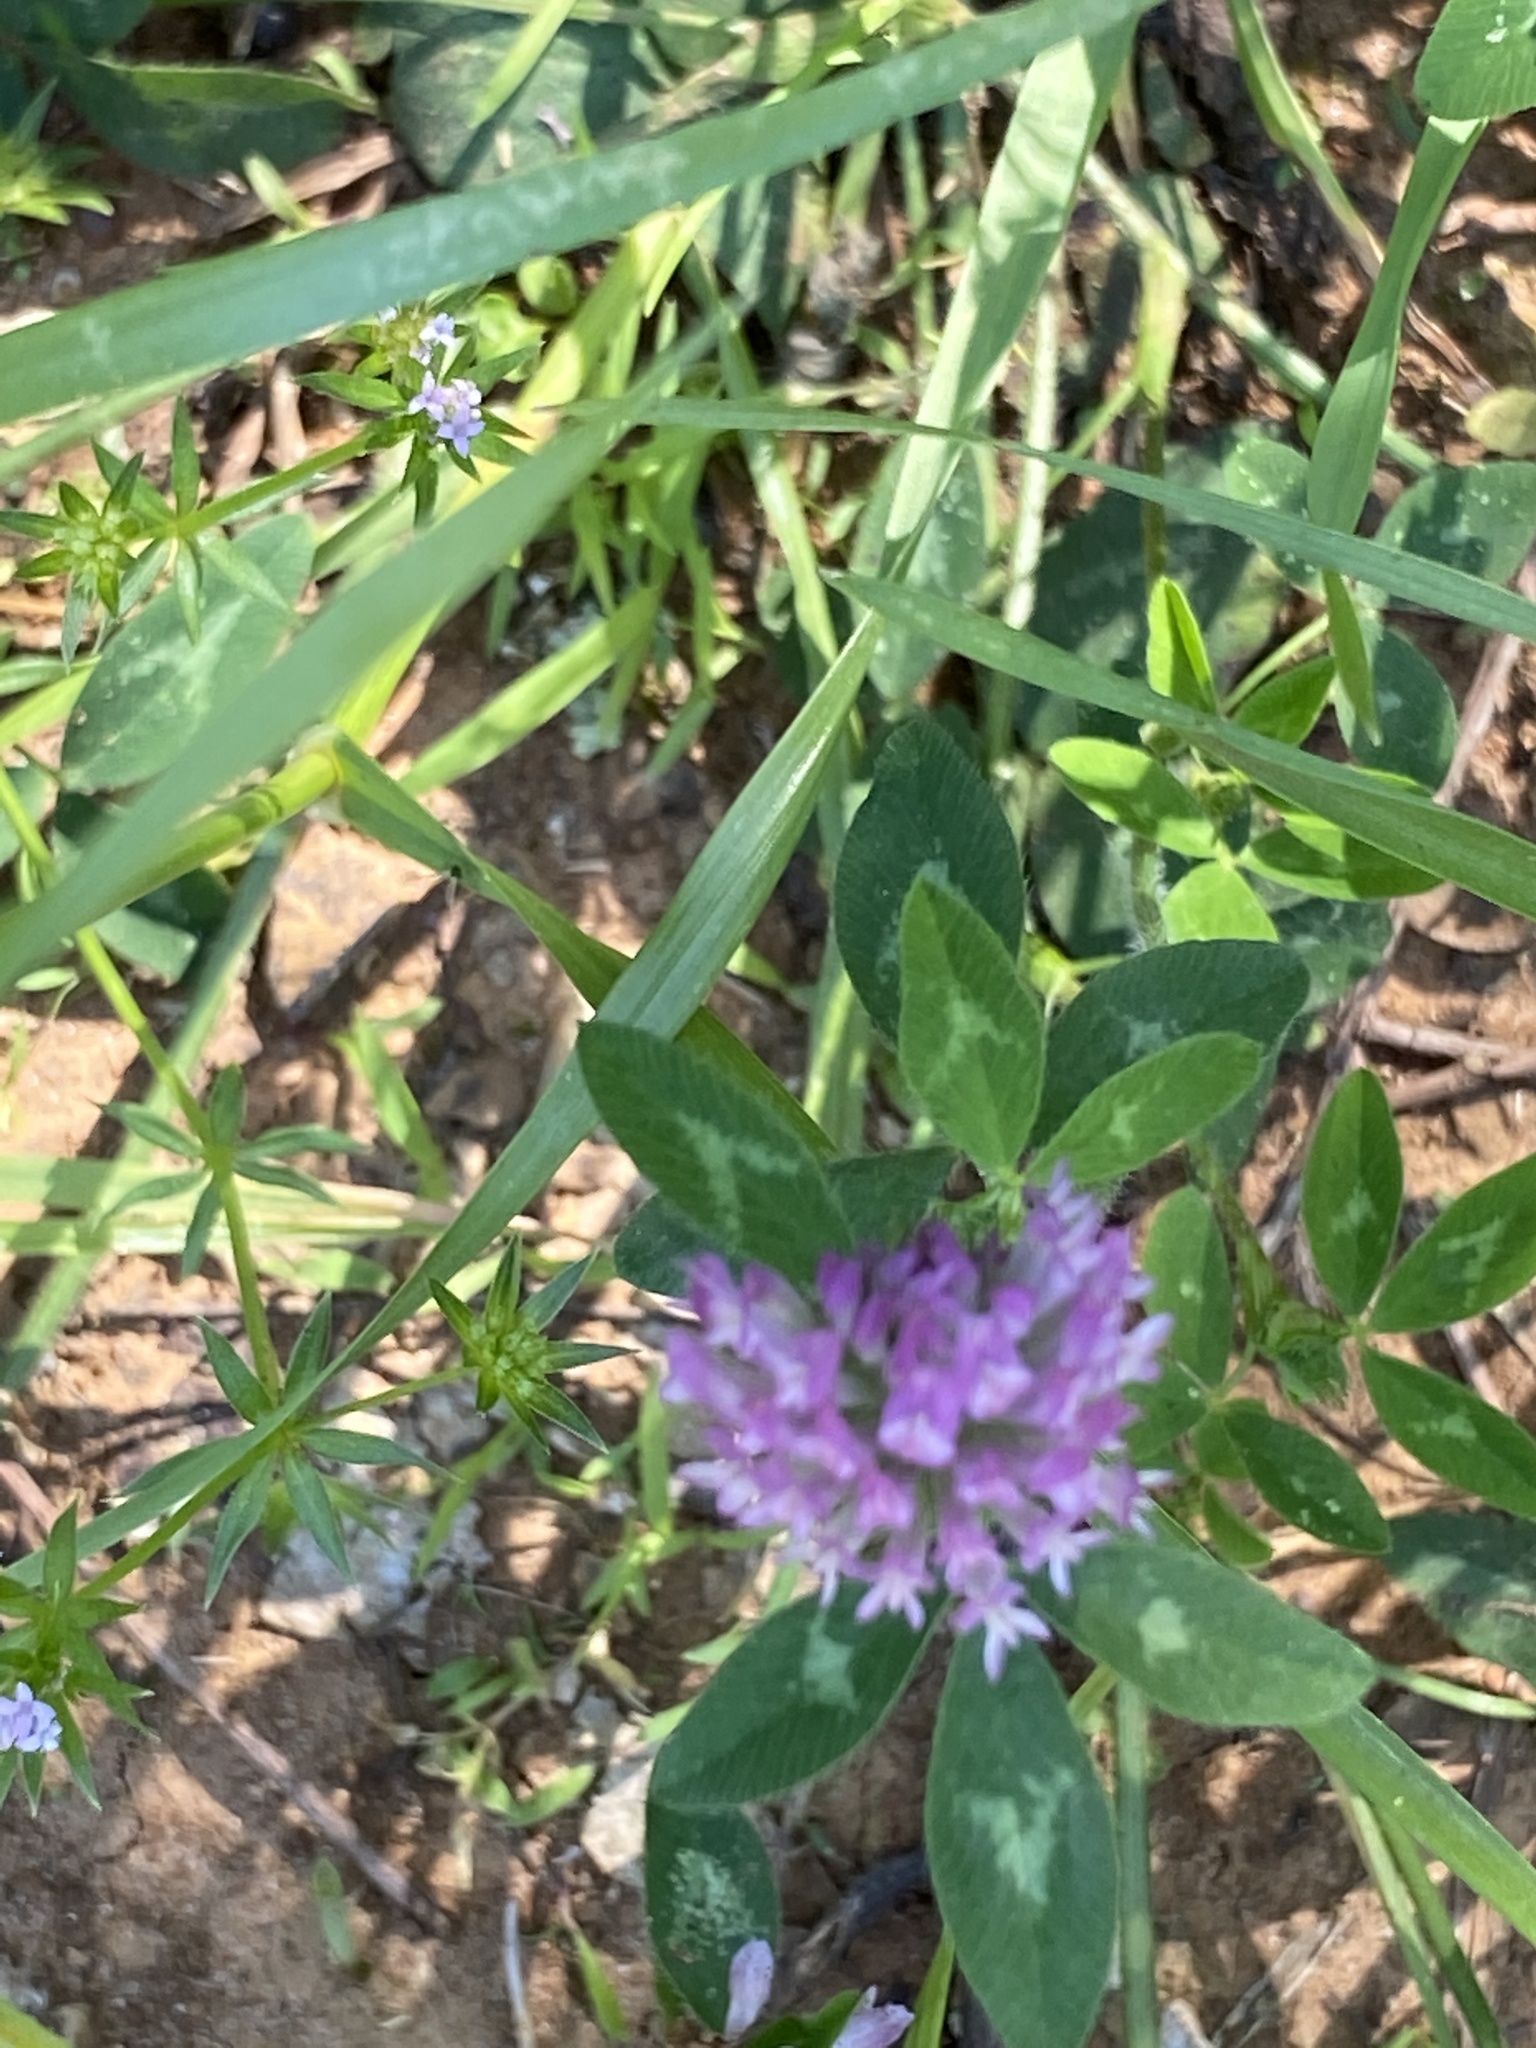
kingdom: Plantae
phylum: Tracheophyta
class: Magnoliopsida
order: Fabales
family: Fabaceae
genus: Trifolium
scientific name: Trifolium pratense
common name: Red clover
